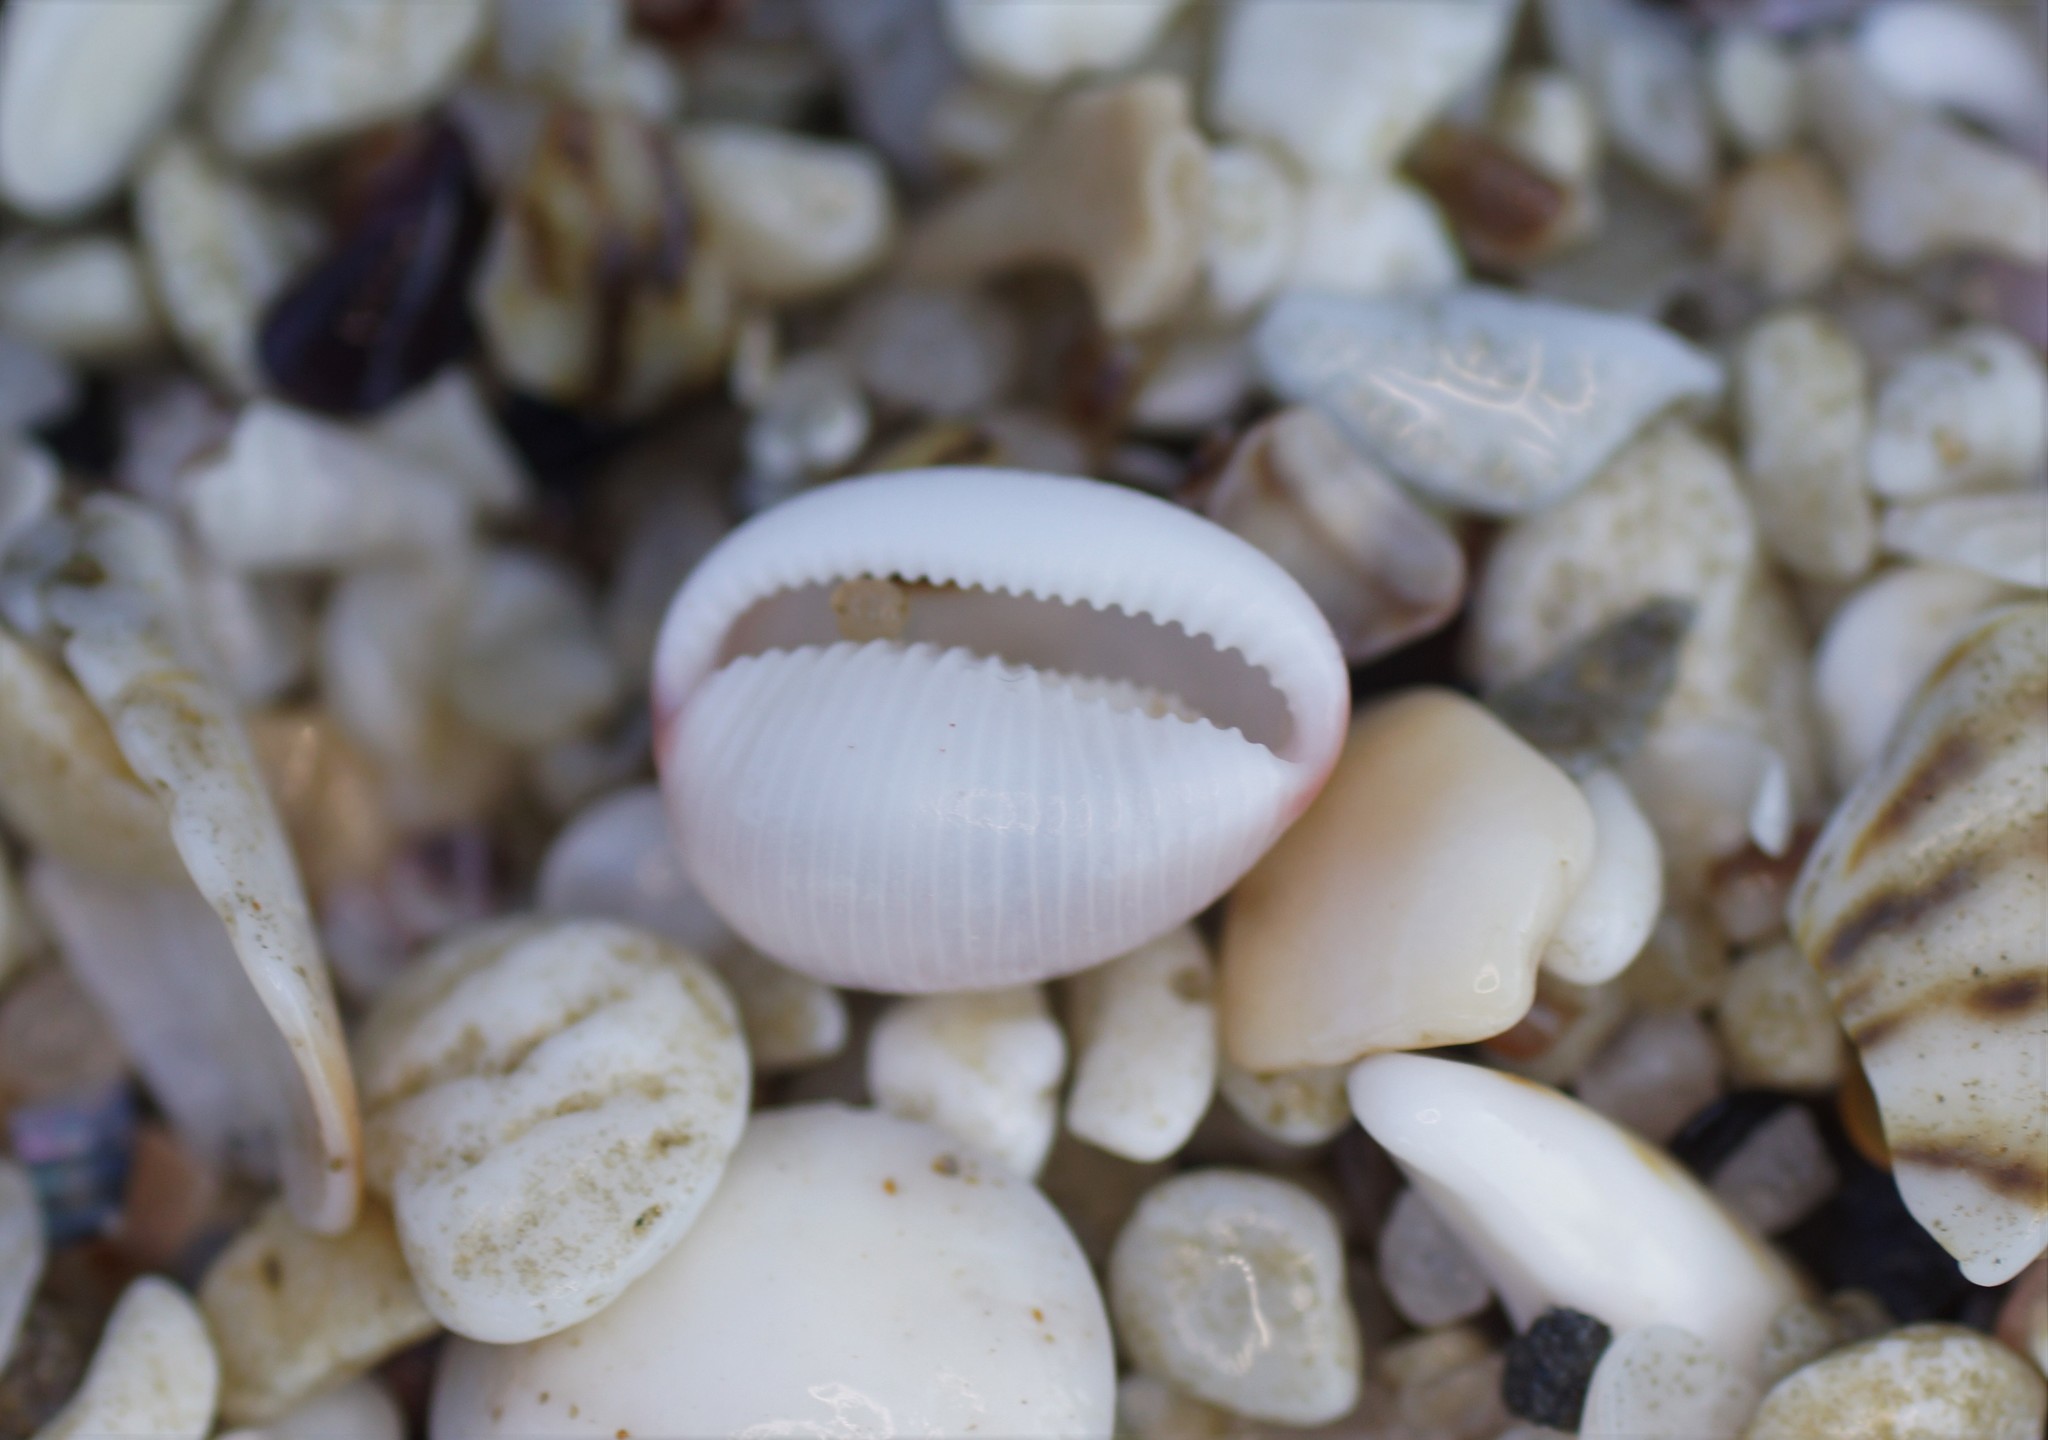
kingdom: Animalia
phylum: Mollusca
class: Gastropoda
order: Littorinimorpha
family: Triviidae
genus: Ellatrivia
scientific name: Ellatrivia merces
